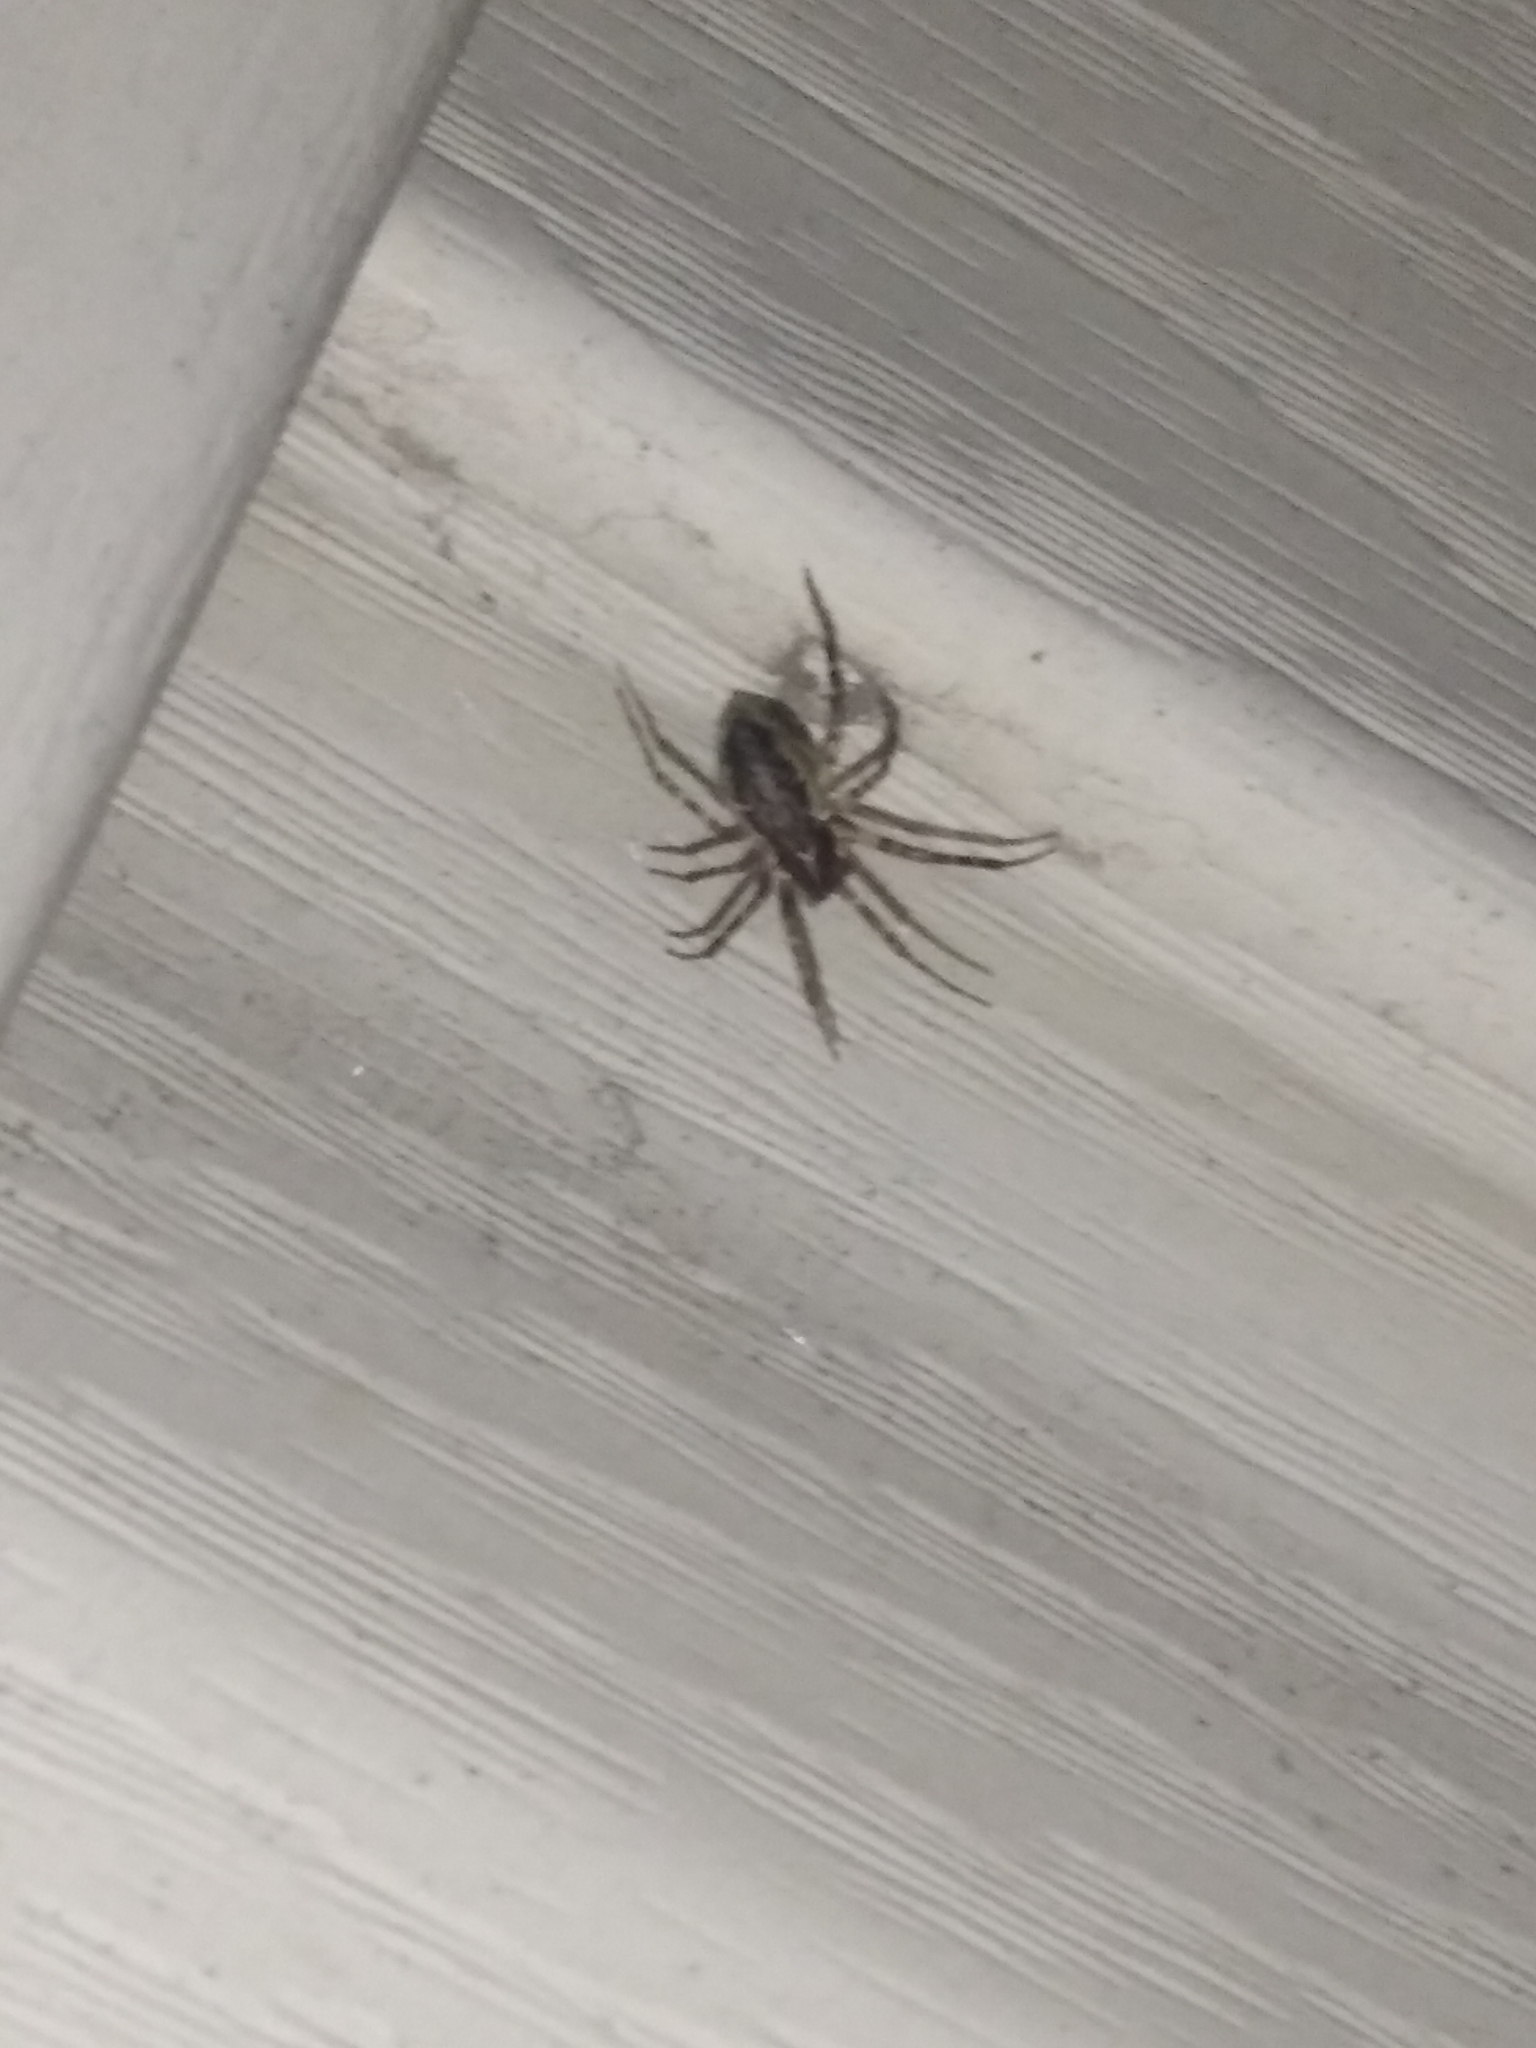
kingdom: Animalia
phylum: Arthropoda
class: Arachnida
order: Araneae
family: Linyphiidae
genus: Neriene
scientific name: Neriene montana
